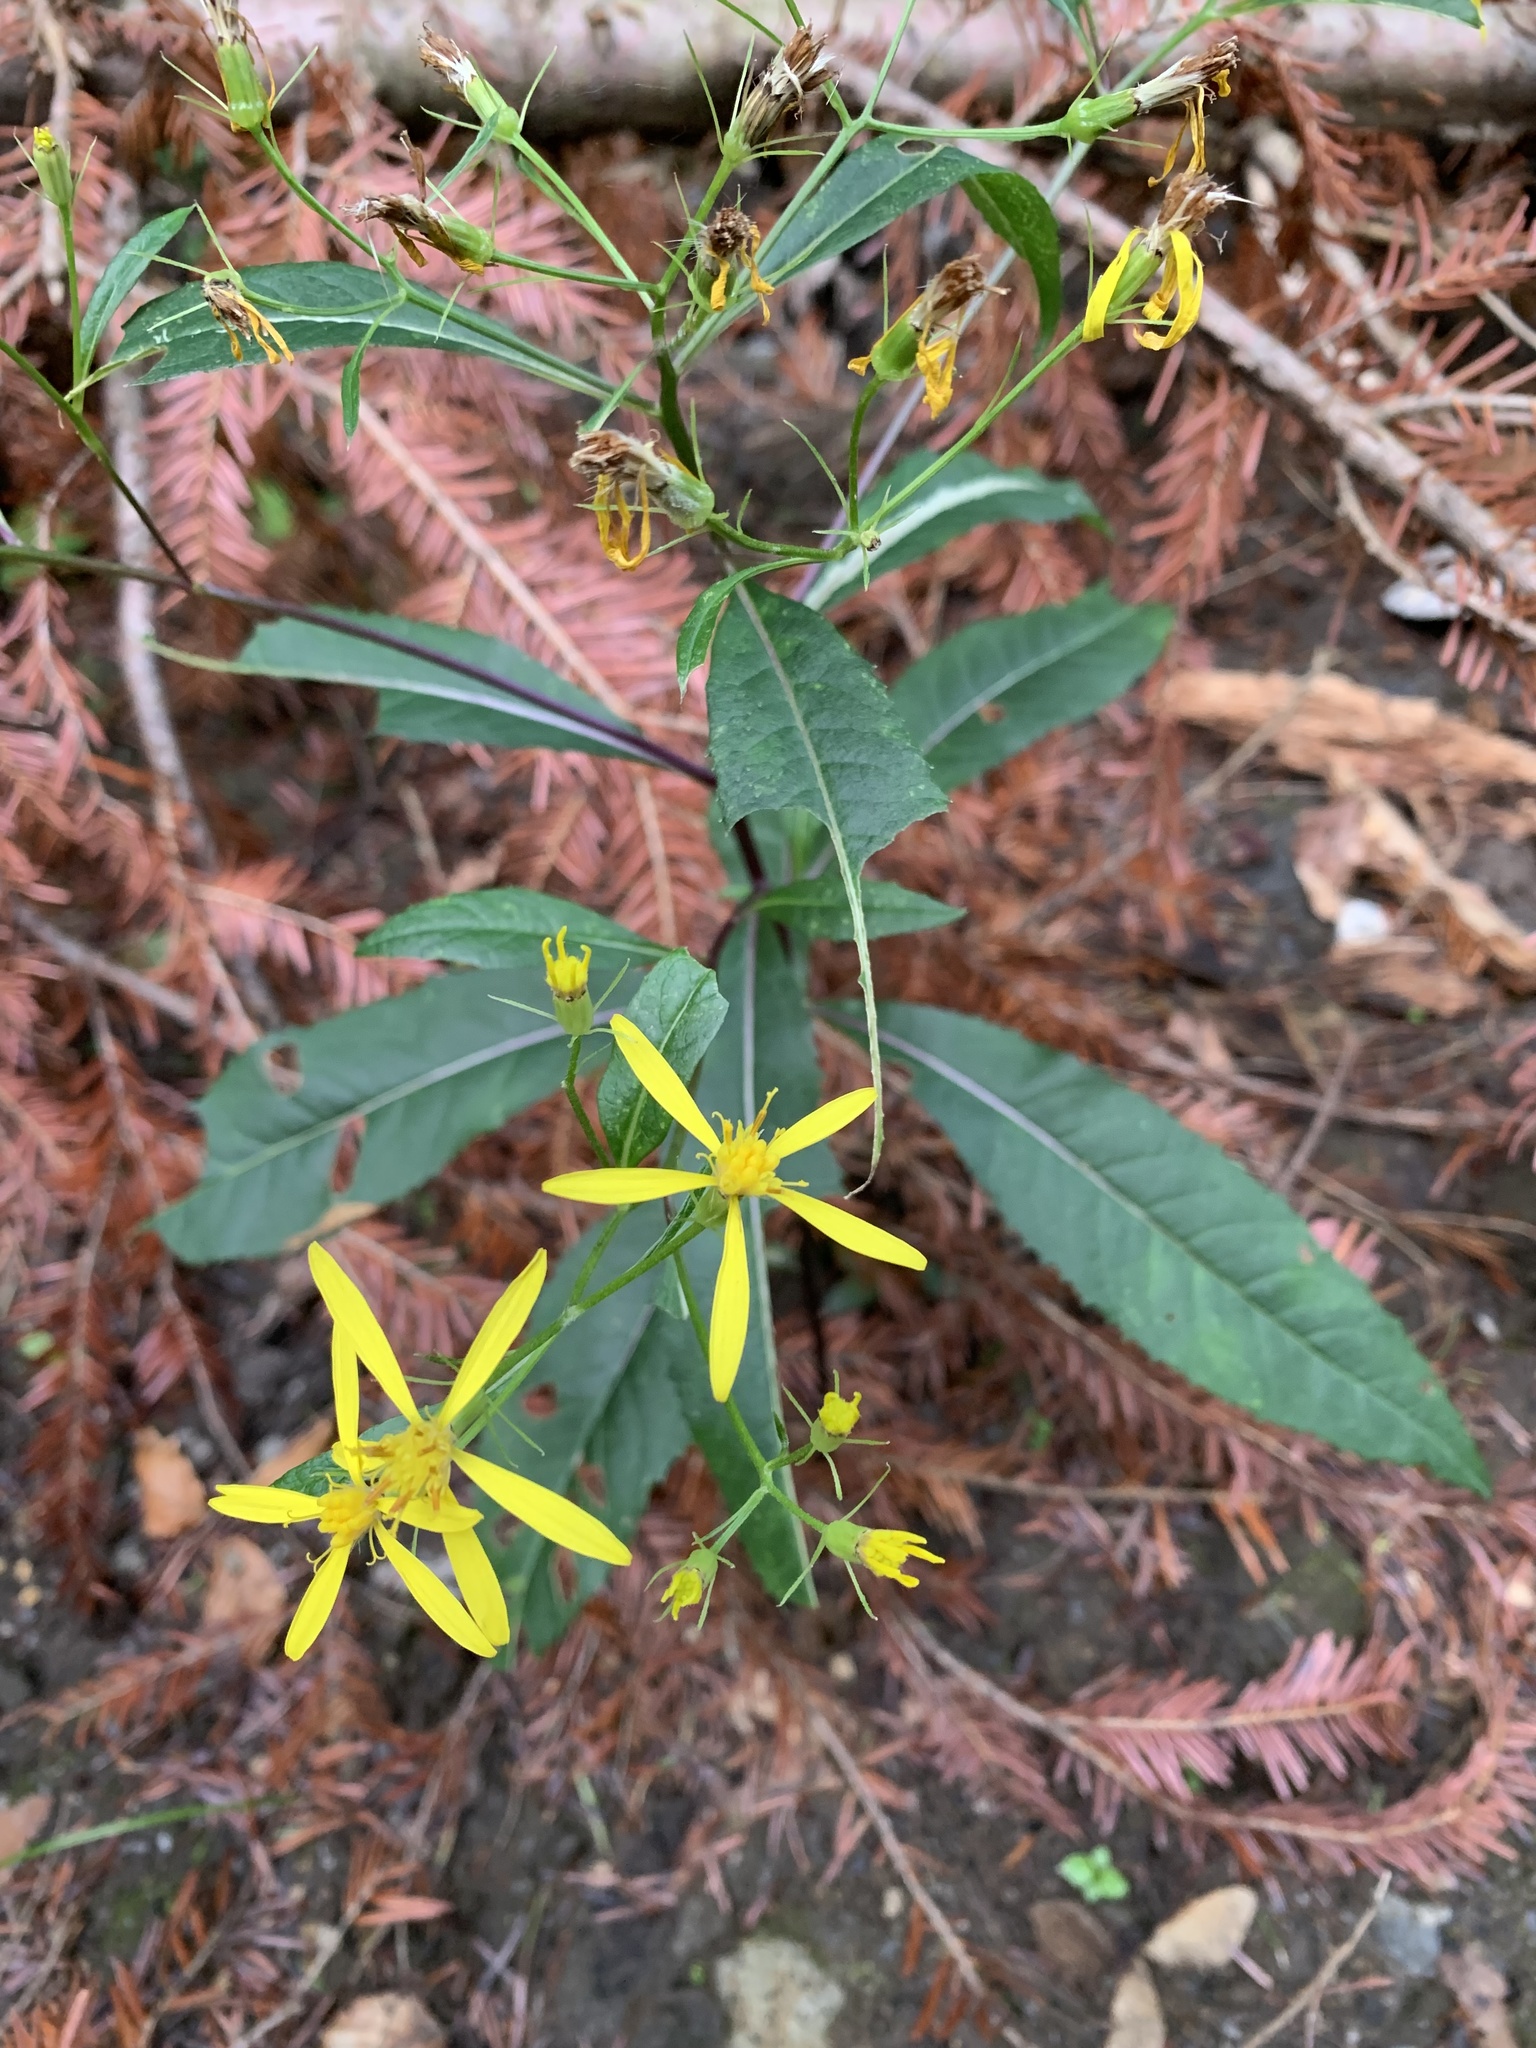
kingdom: Plantae
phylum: Tracheophyta
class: Magnoliopsida
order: Asterales
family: Asteraceae
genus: Senecio
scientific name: Senecio ovatus
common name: Wood ragwort
